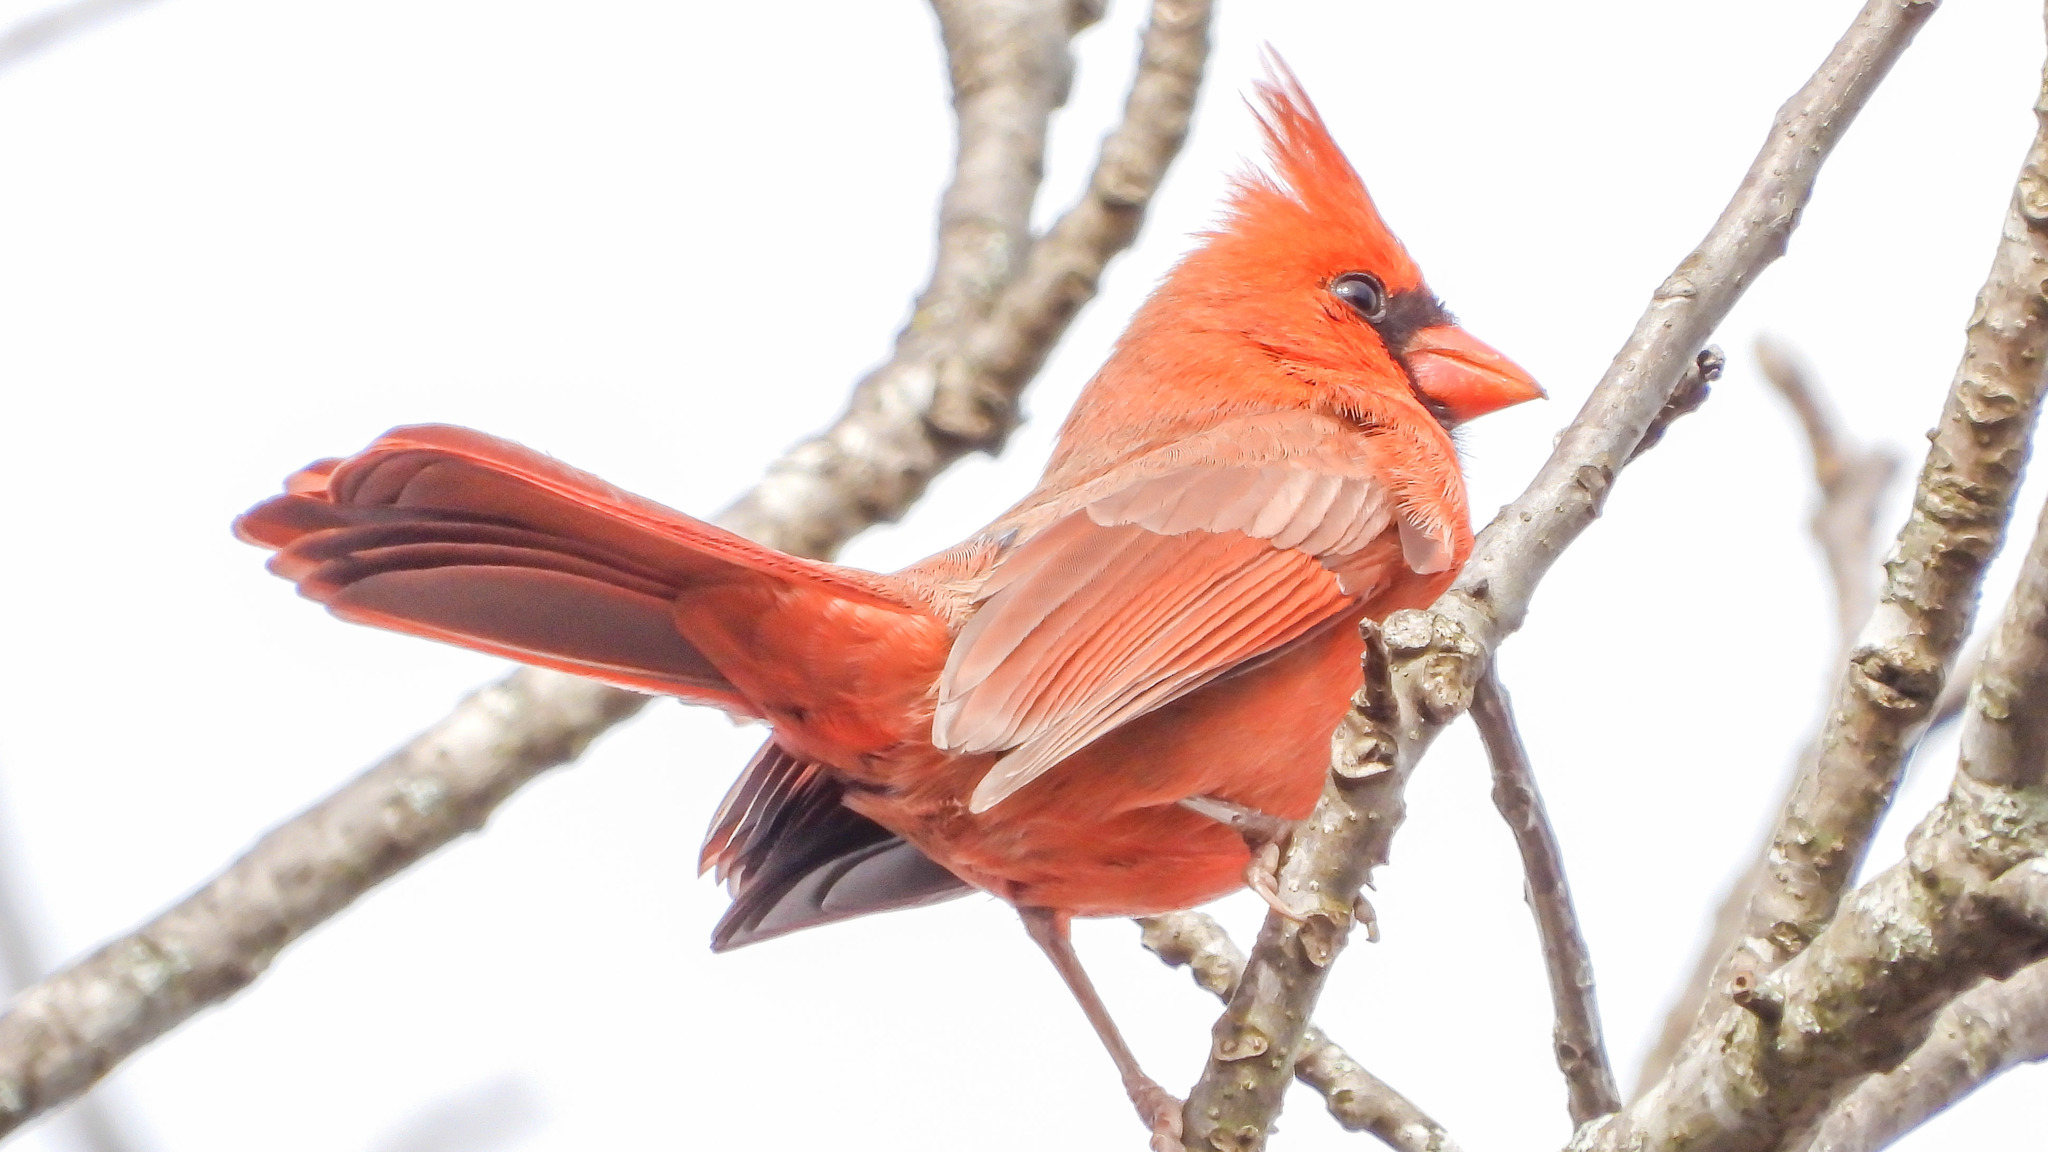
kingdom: Animalia
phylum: Chordata
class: Aves
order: Passeriformes
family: Cardinalidae
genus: Cardinalis
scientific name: Cardinalis cardinalis
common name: Northern cardinal
